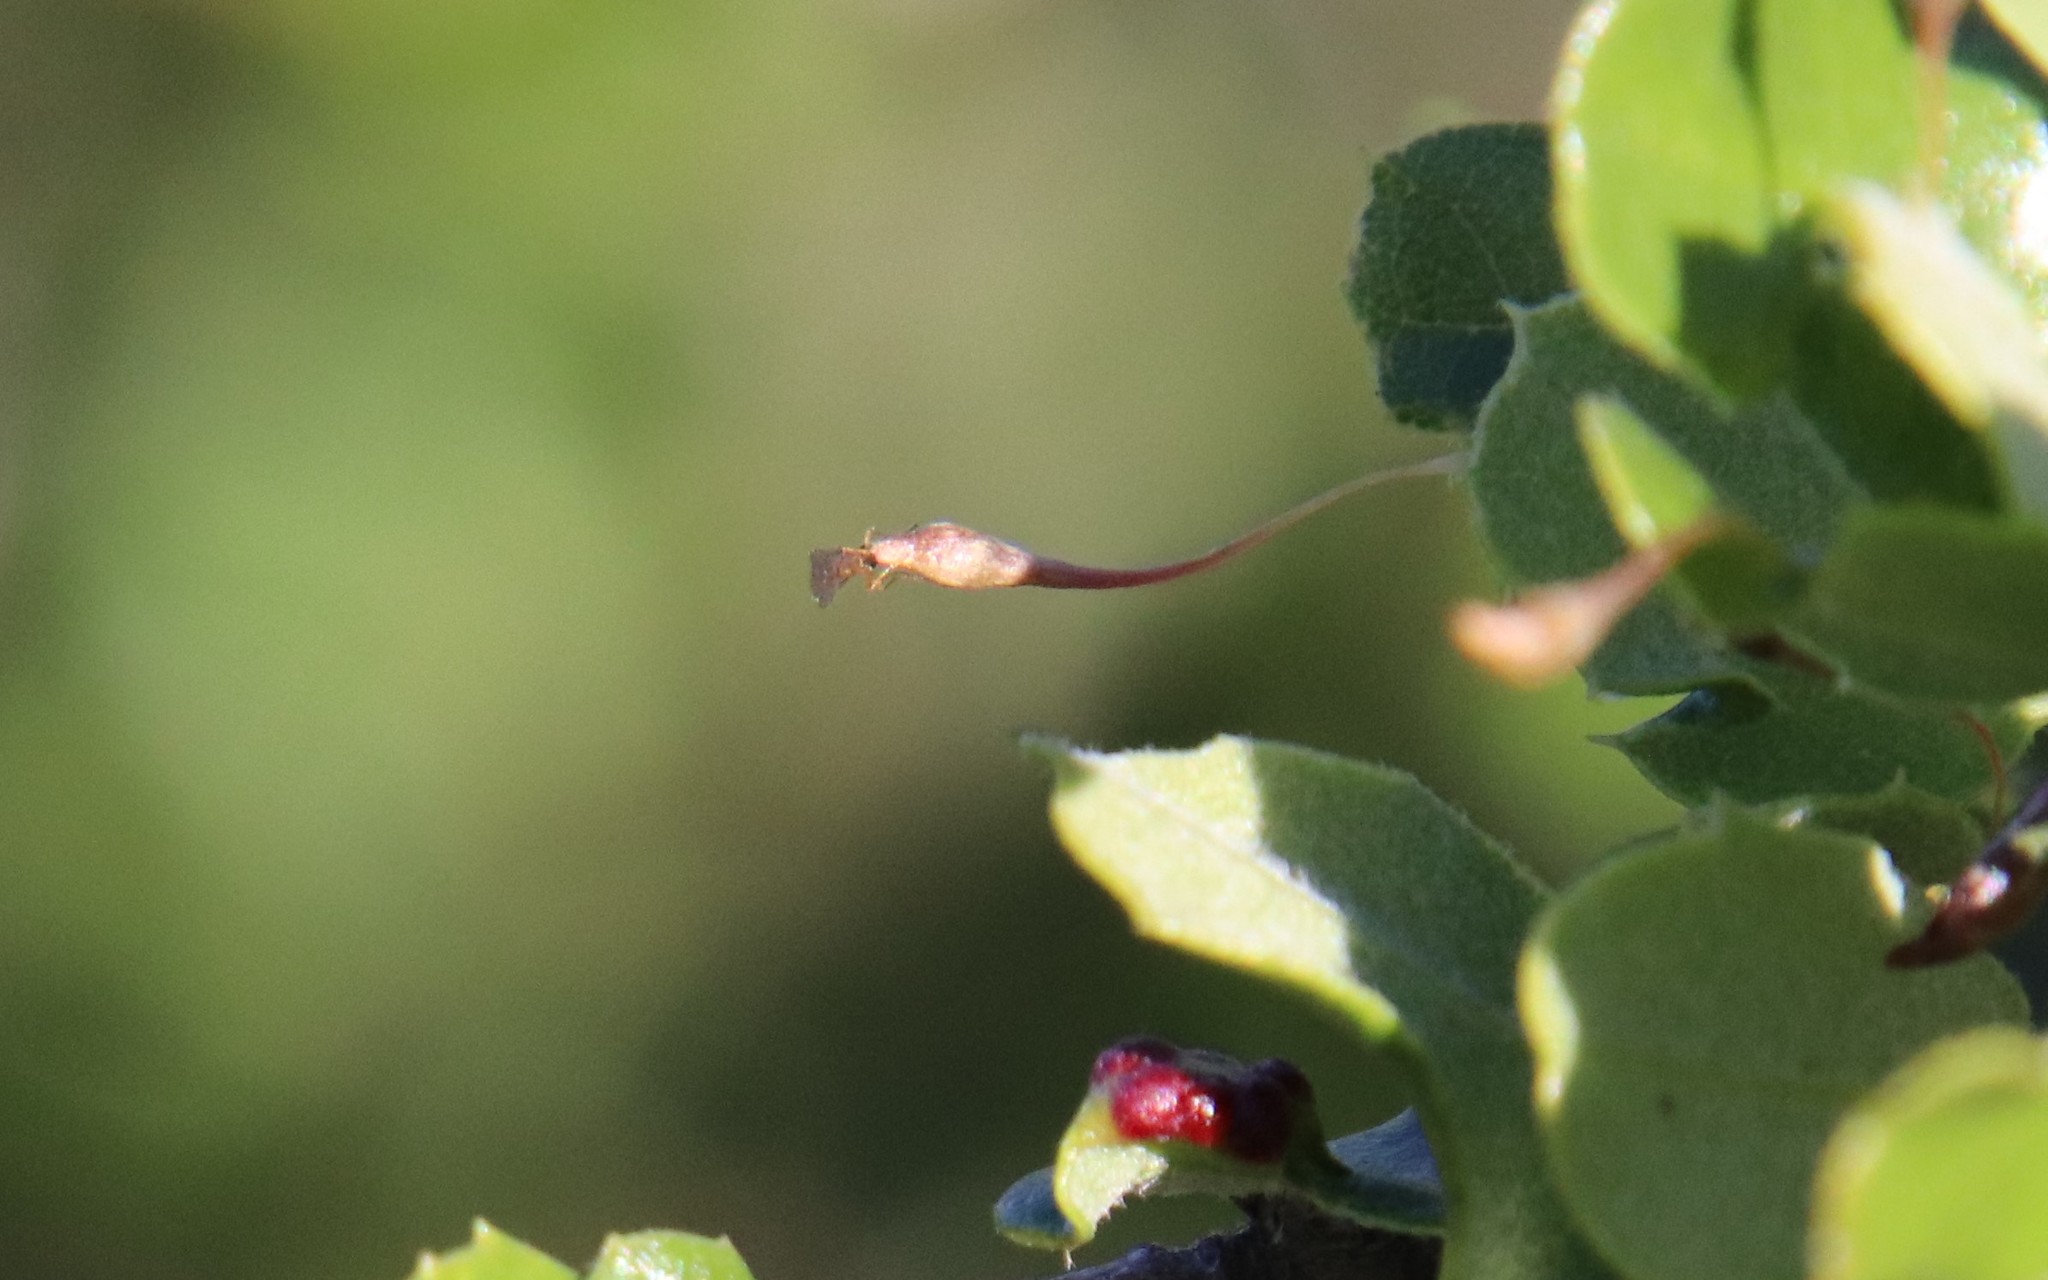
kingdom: Animalia
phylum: Arthropoda
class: Insecta
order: Hymenoptera
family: Cynipidae
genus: Andricus
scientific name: Andricus
